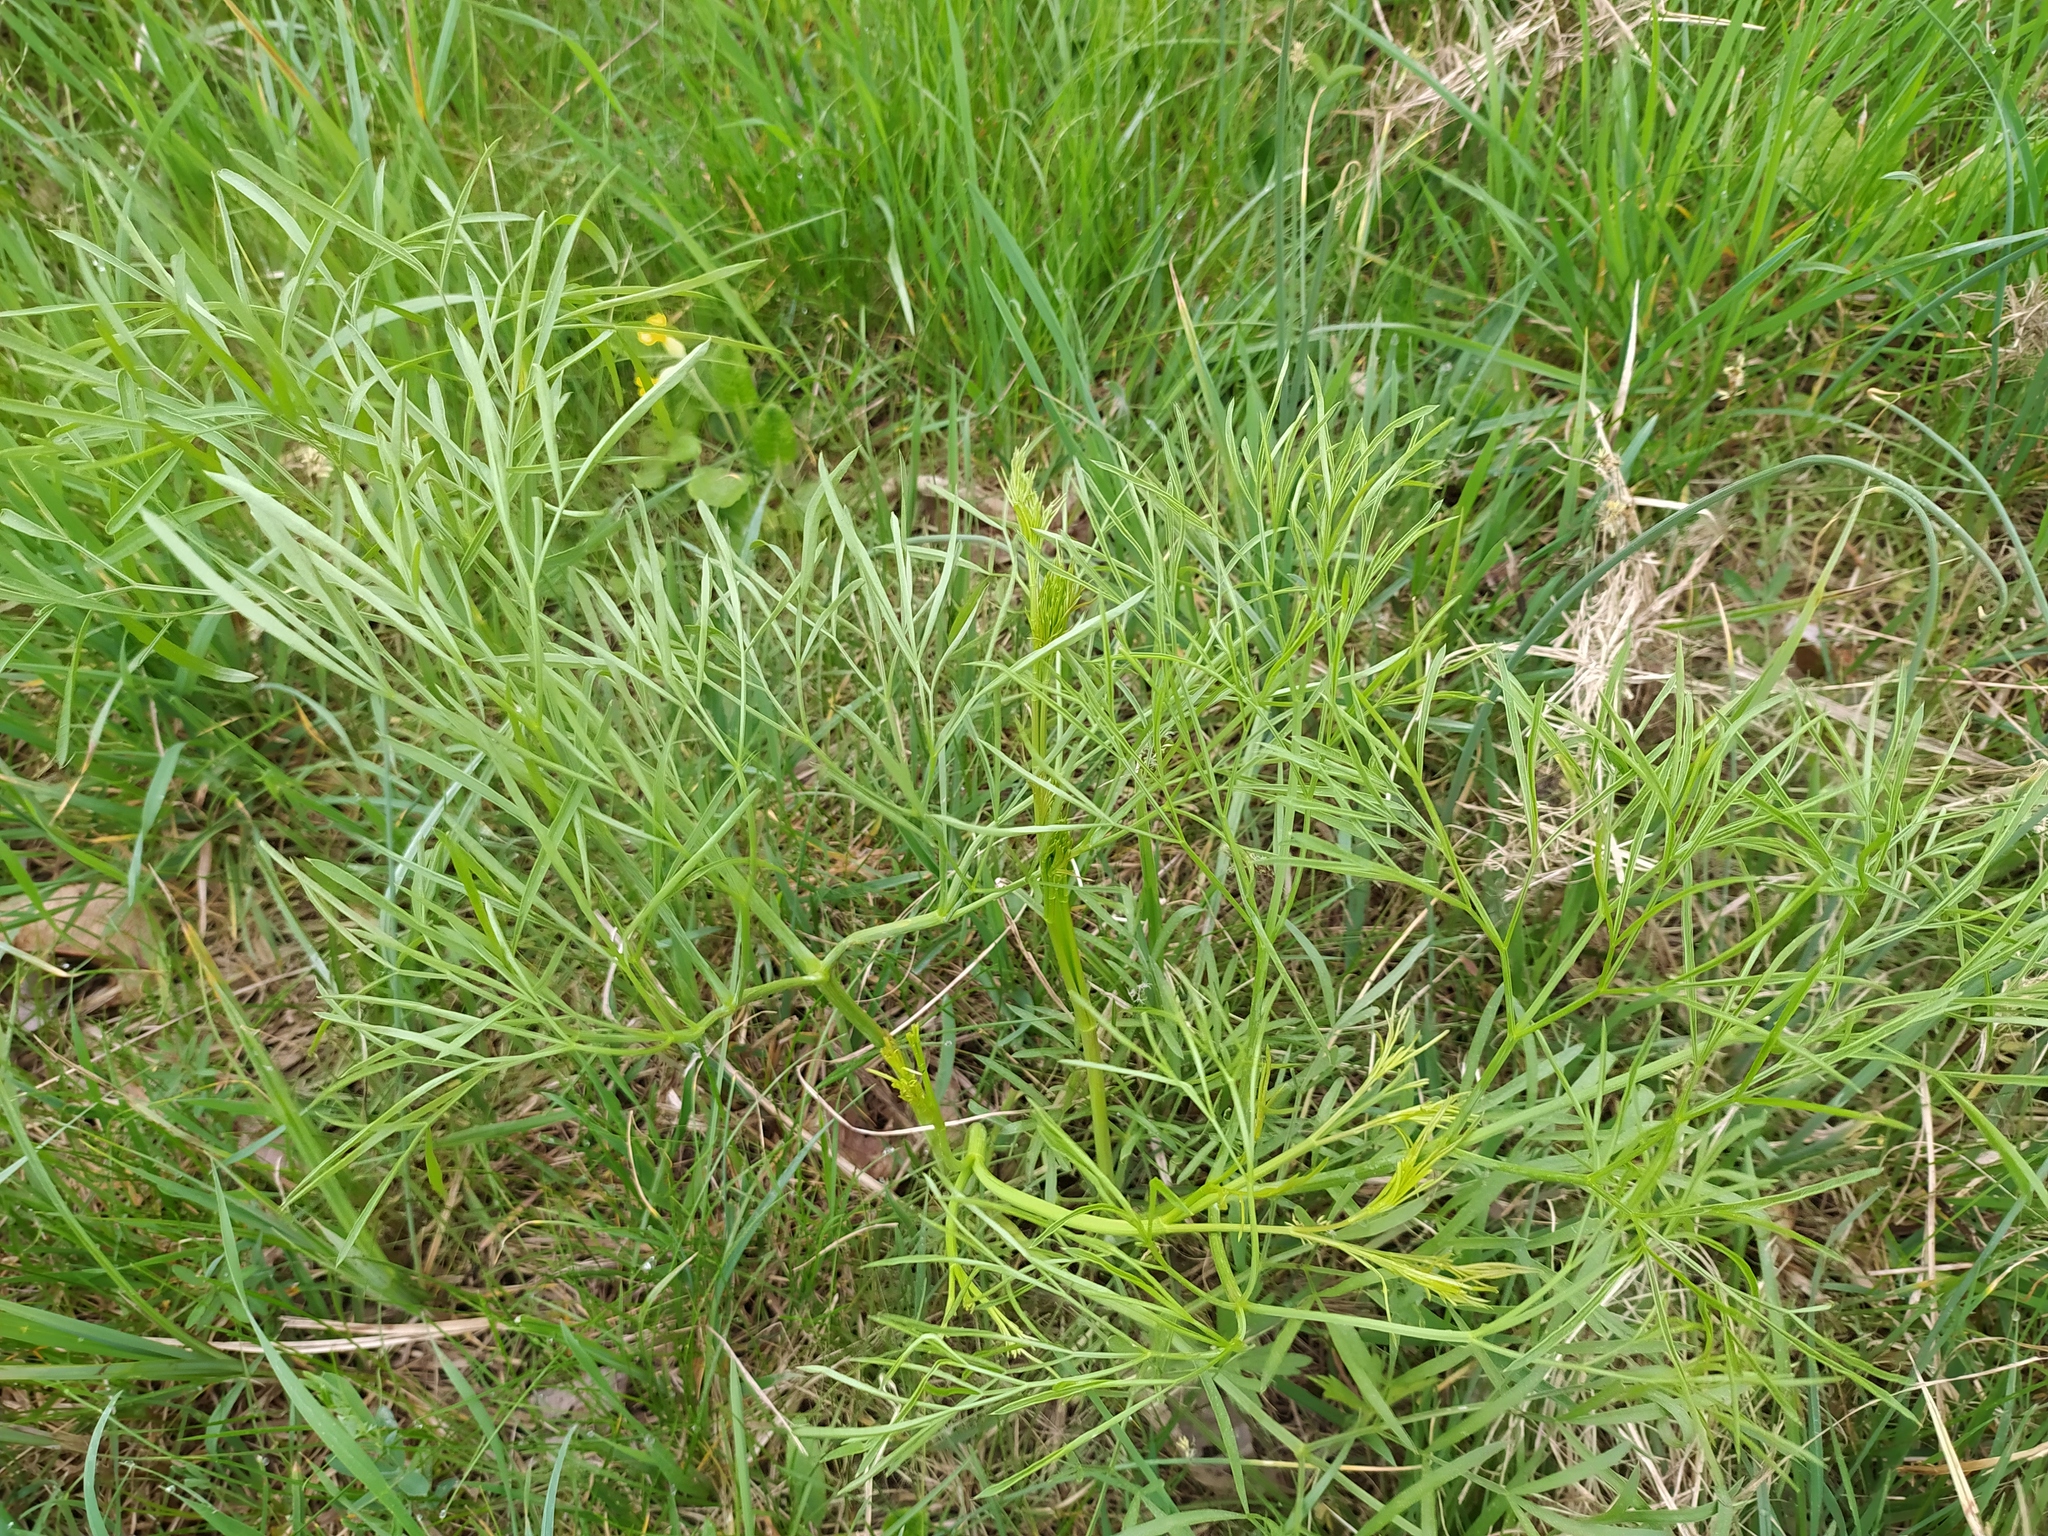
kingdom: Plantae
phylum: Tracheophyta
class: Magnoliopsida
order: Apiales
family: Apiaceae
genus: Peucedanum
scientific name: Peucedanum officinale
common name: Sulphurweed
